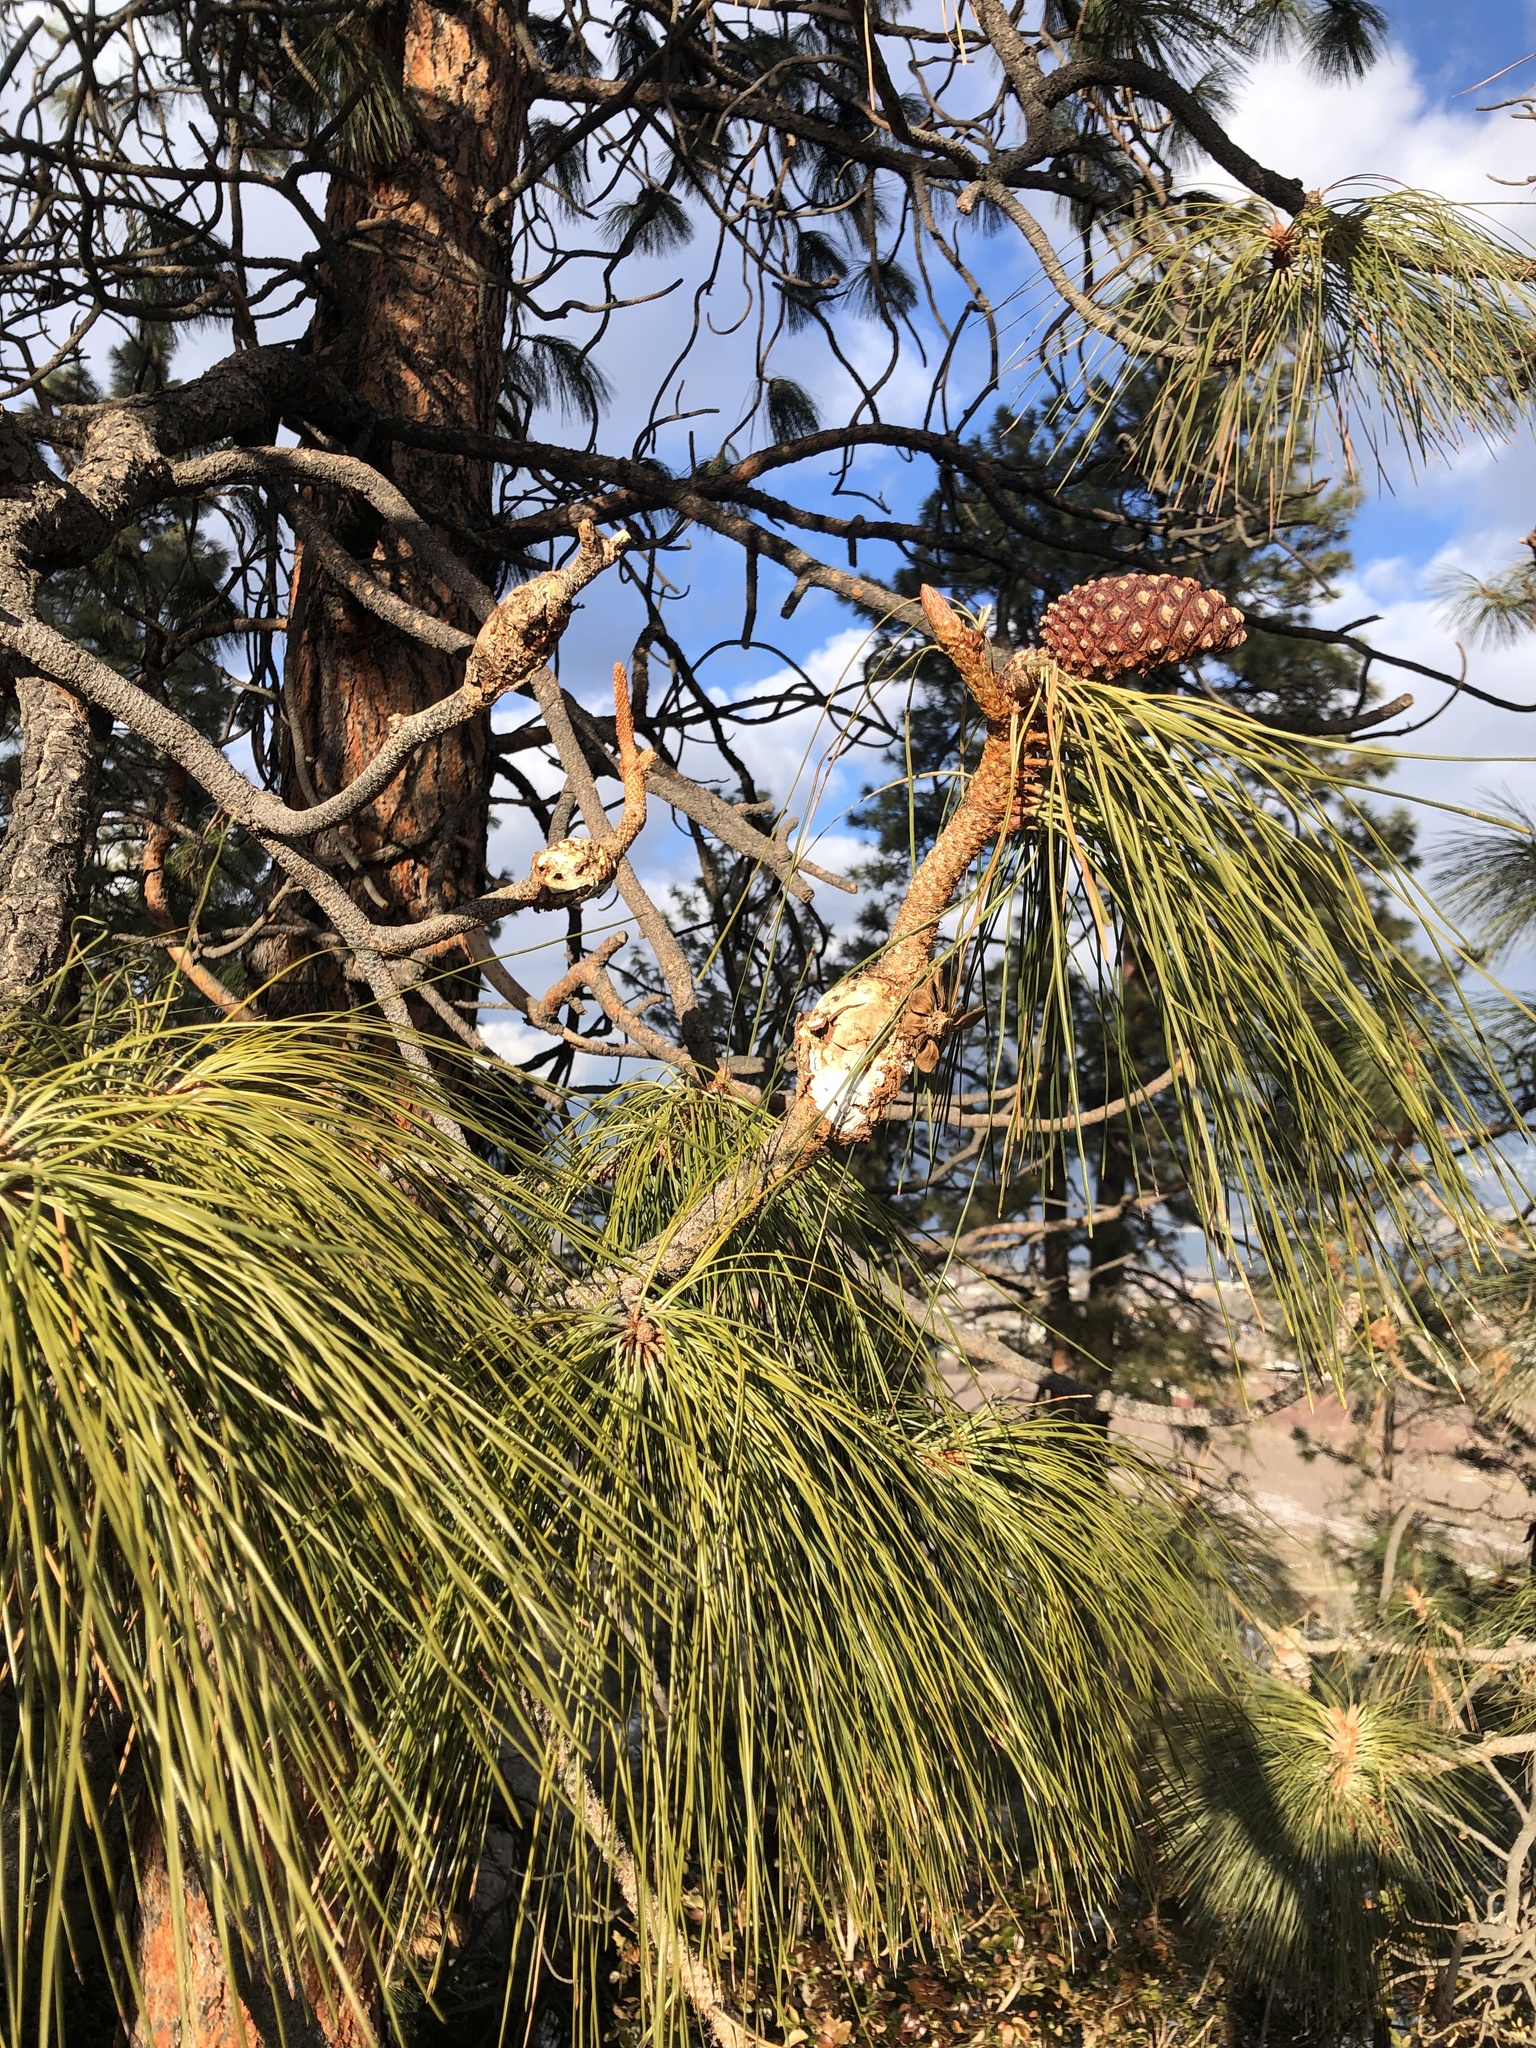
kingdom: Fungi
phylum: Basidiomycota
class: Pucciniomycetes
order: Pucciniales
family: Cronartiaceae
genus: Cronartium
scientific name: Cronartium harknessii
